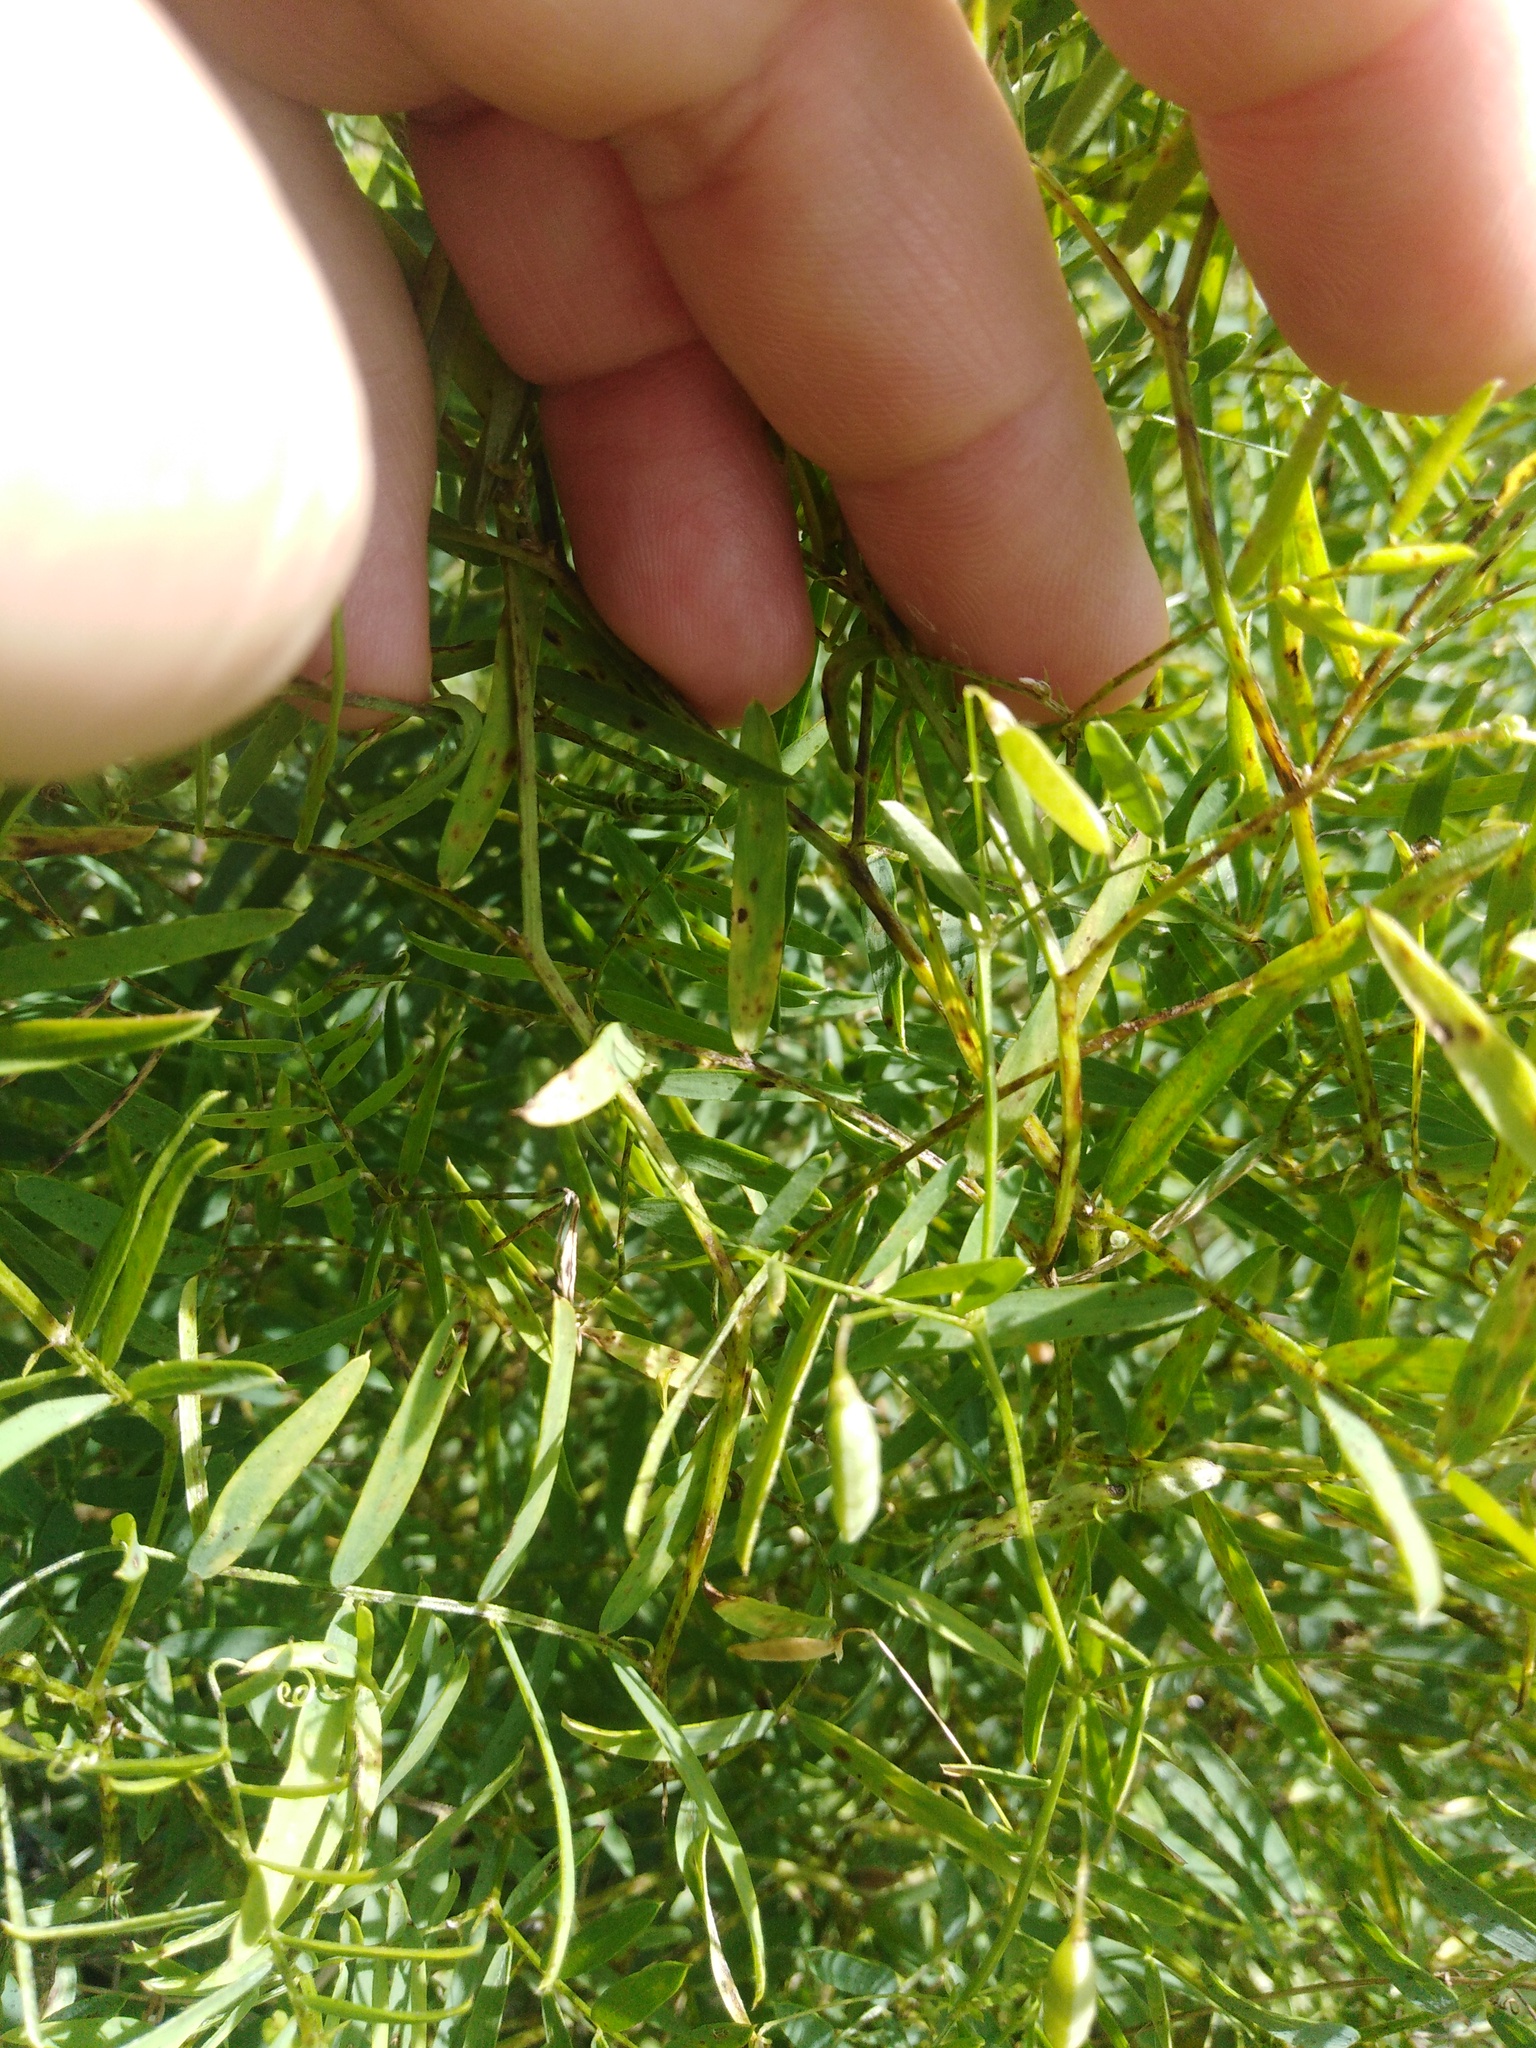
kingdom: Plantae
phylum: Tracheophyta
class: Magnoliopsida
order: Fabales
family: Fabaceae
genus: Vicia
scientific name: Vicia tetrasperma
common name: Smooth tare
